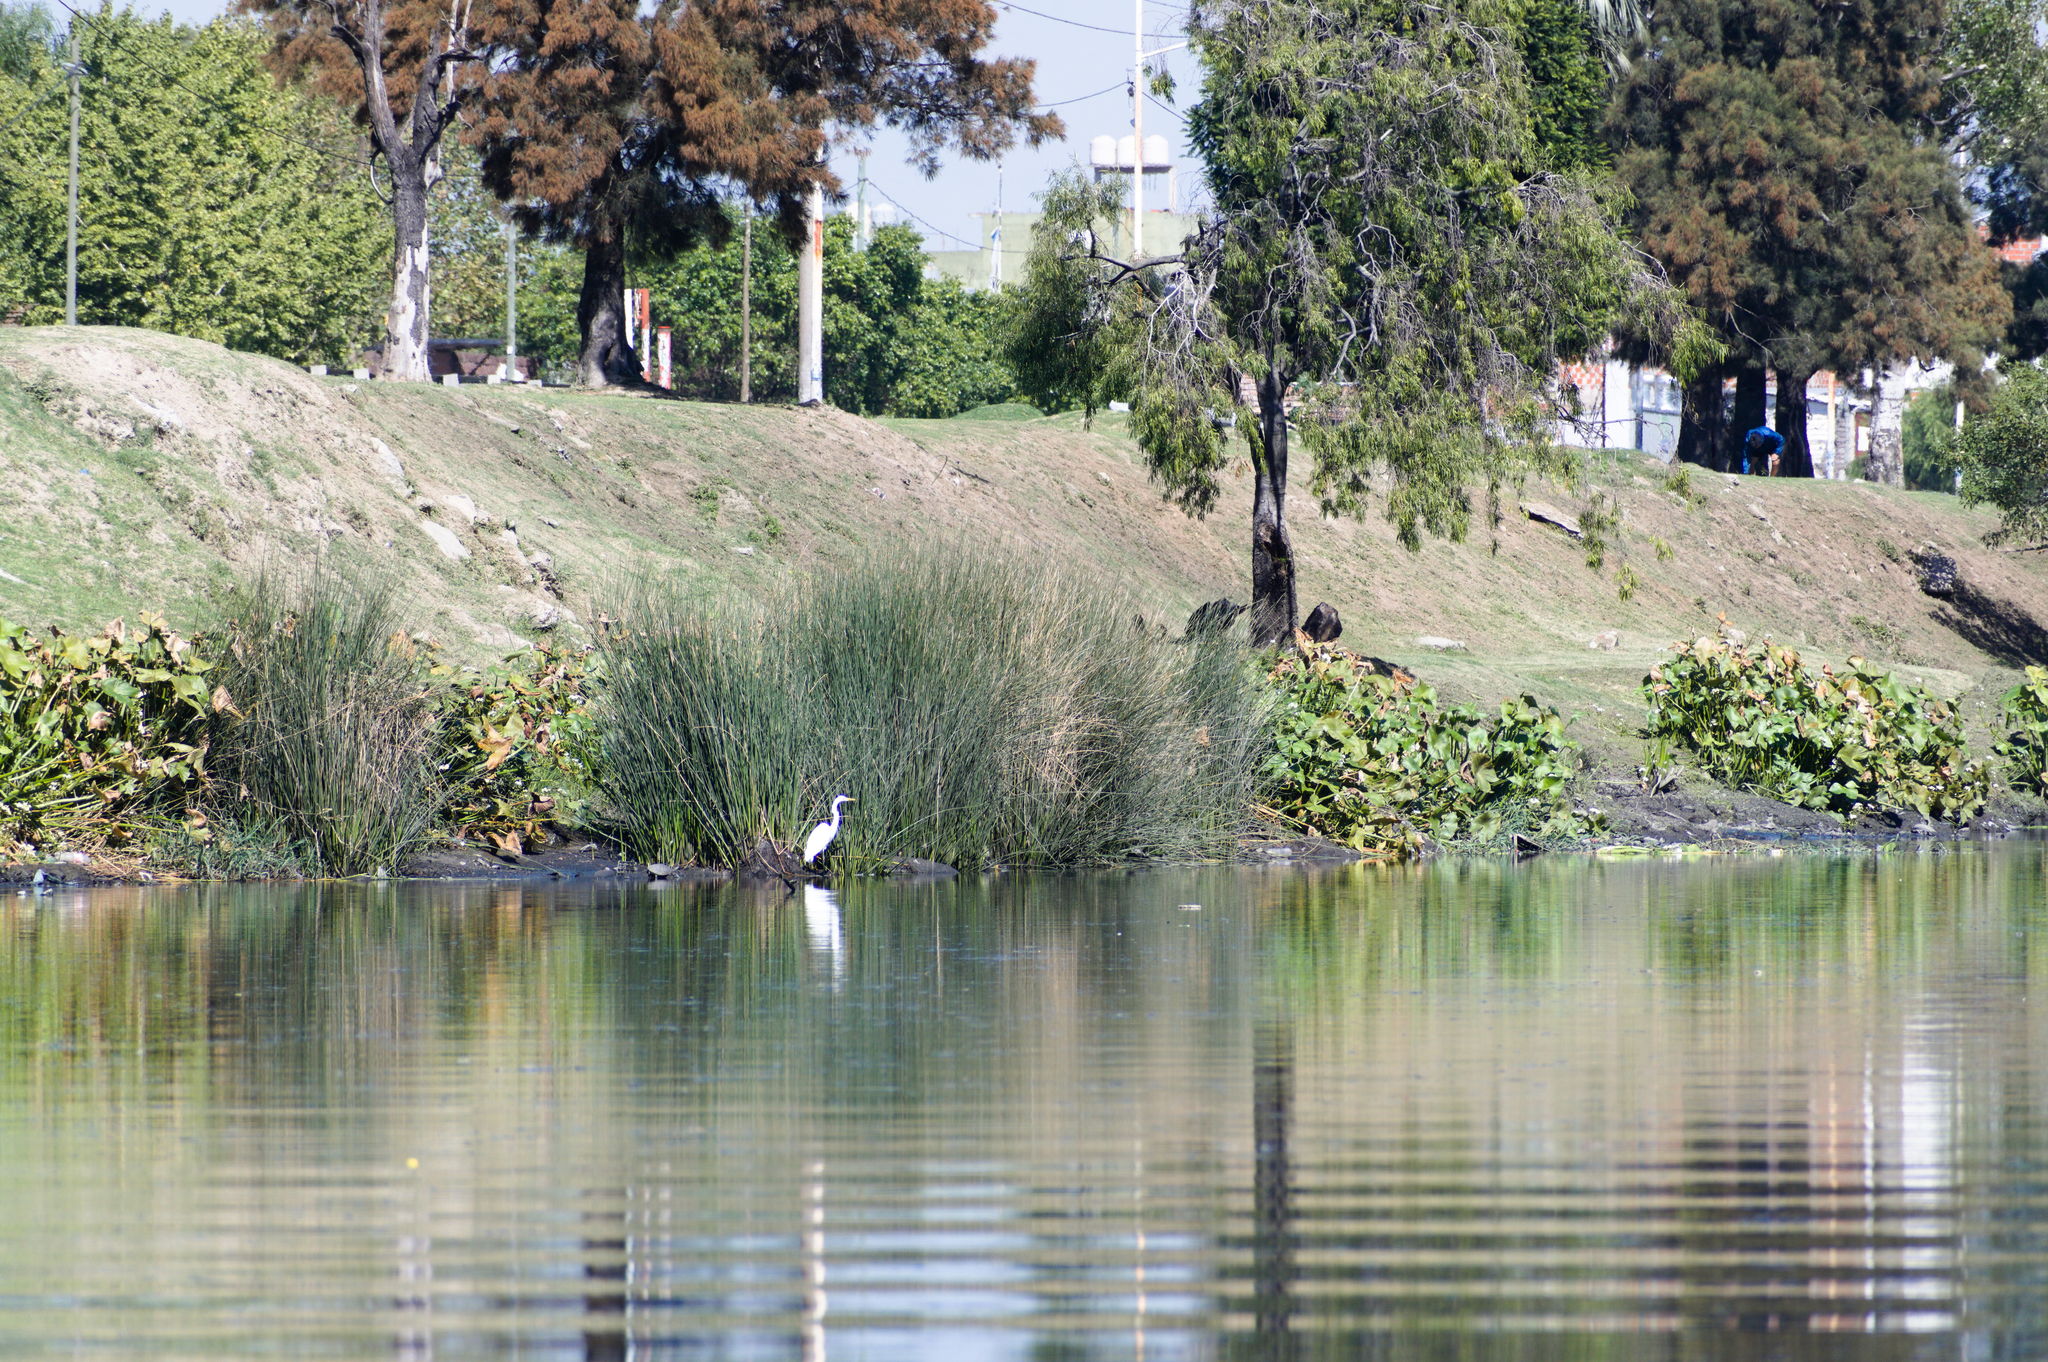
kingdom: Animalia
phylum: Chordata
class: Aves
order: Pelecaniformes
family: Ardeidae
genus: Ardea
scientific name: Ardea alba
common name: Great egret
